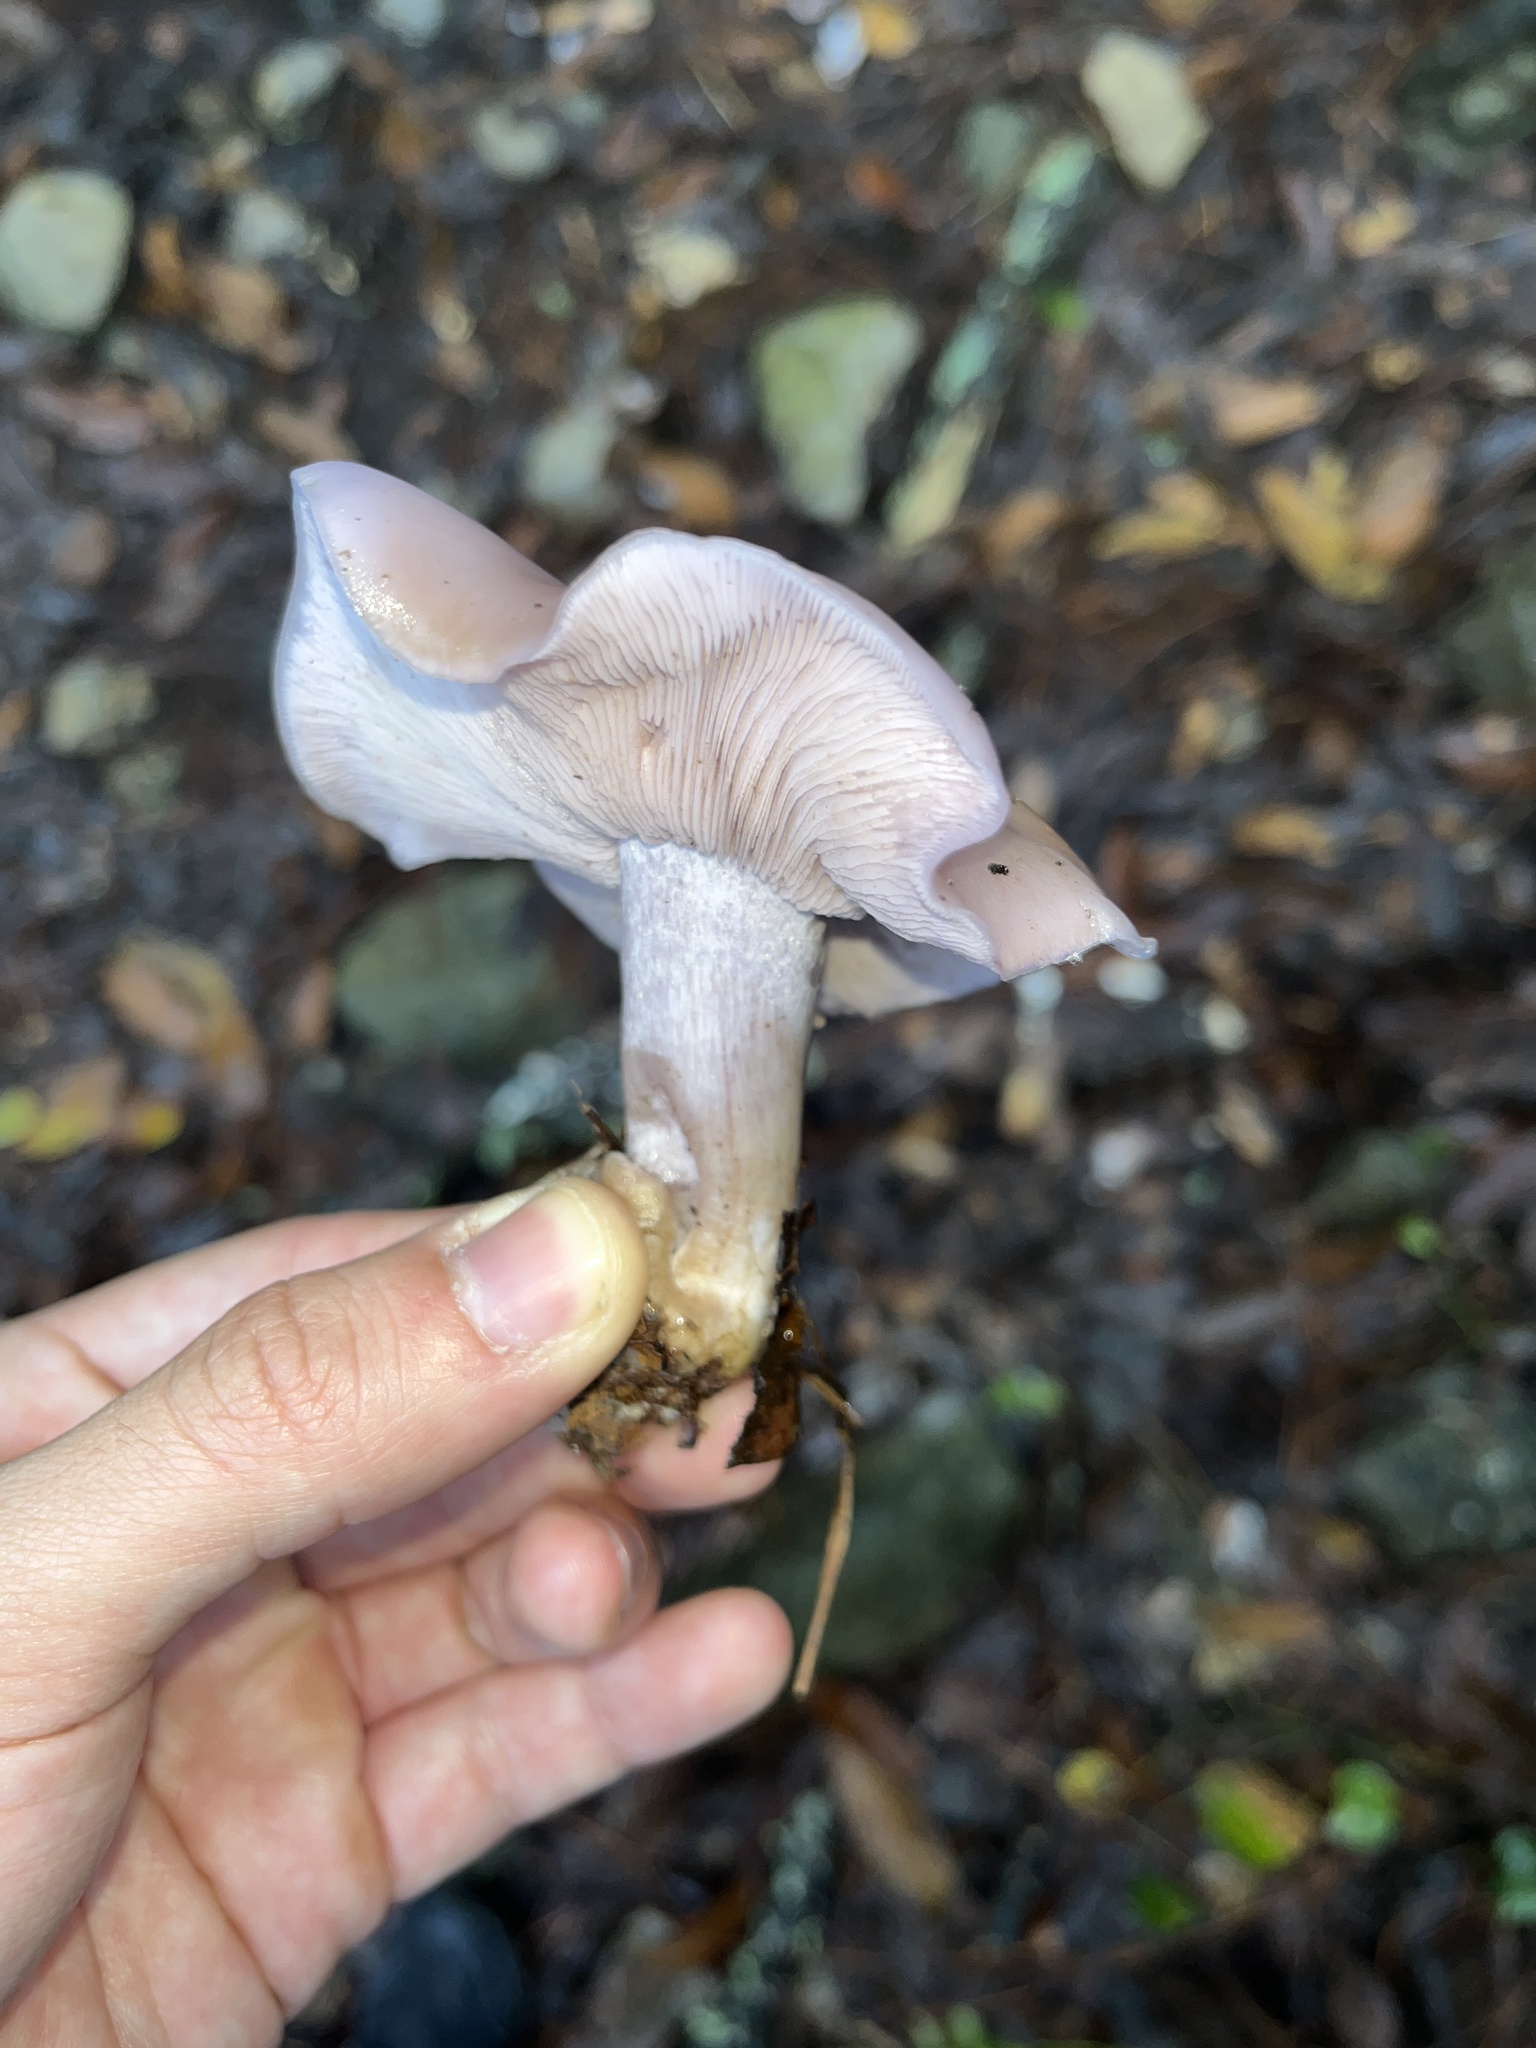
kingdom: Fungi
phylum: Basidiomycota
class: Agaricomycetes
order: Agaricales
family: Tricholomataceae
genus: Collybia
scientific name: Collybia
